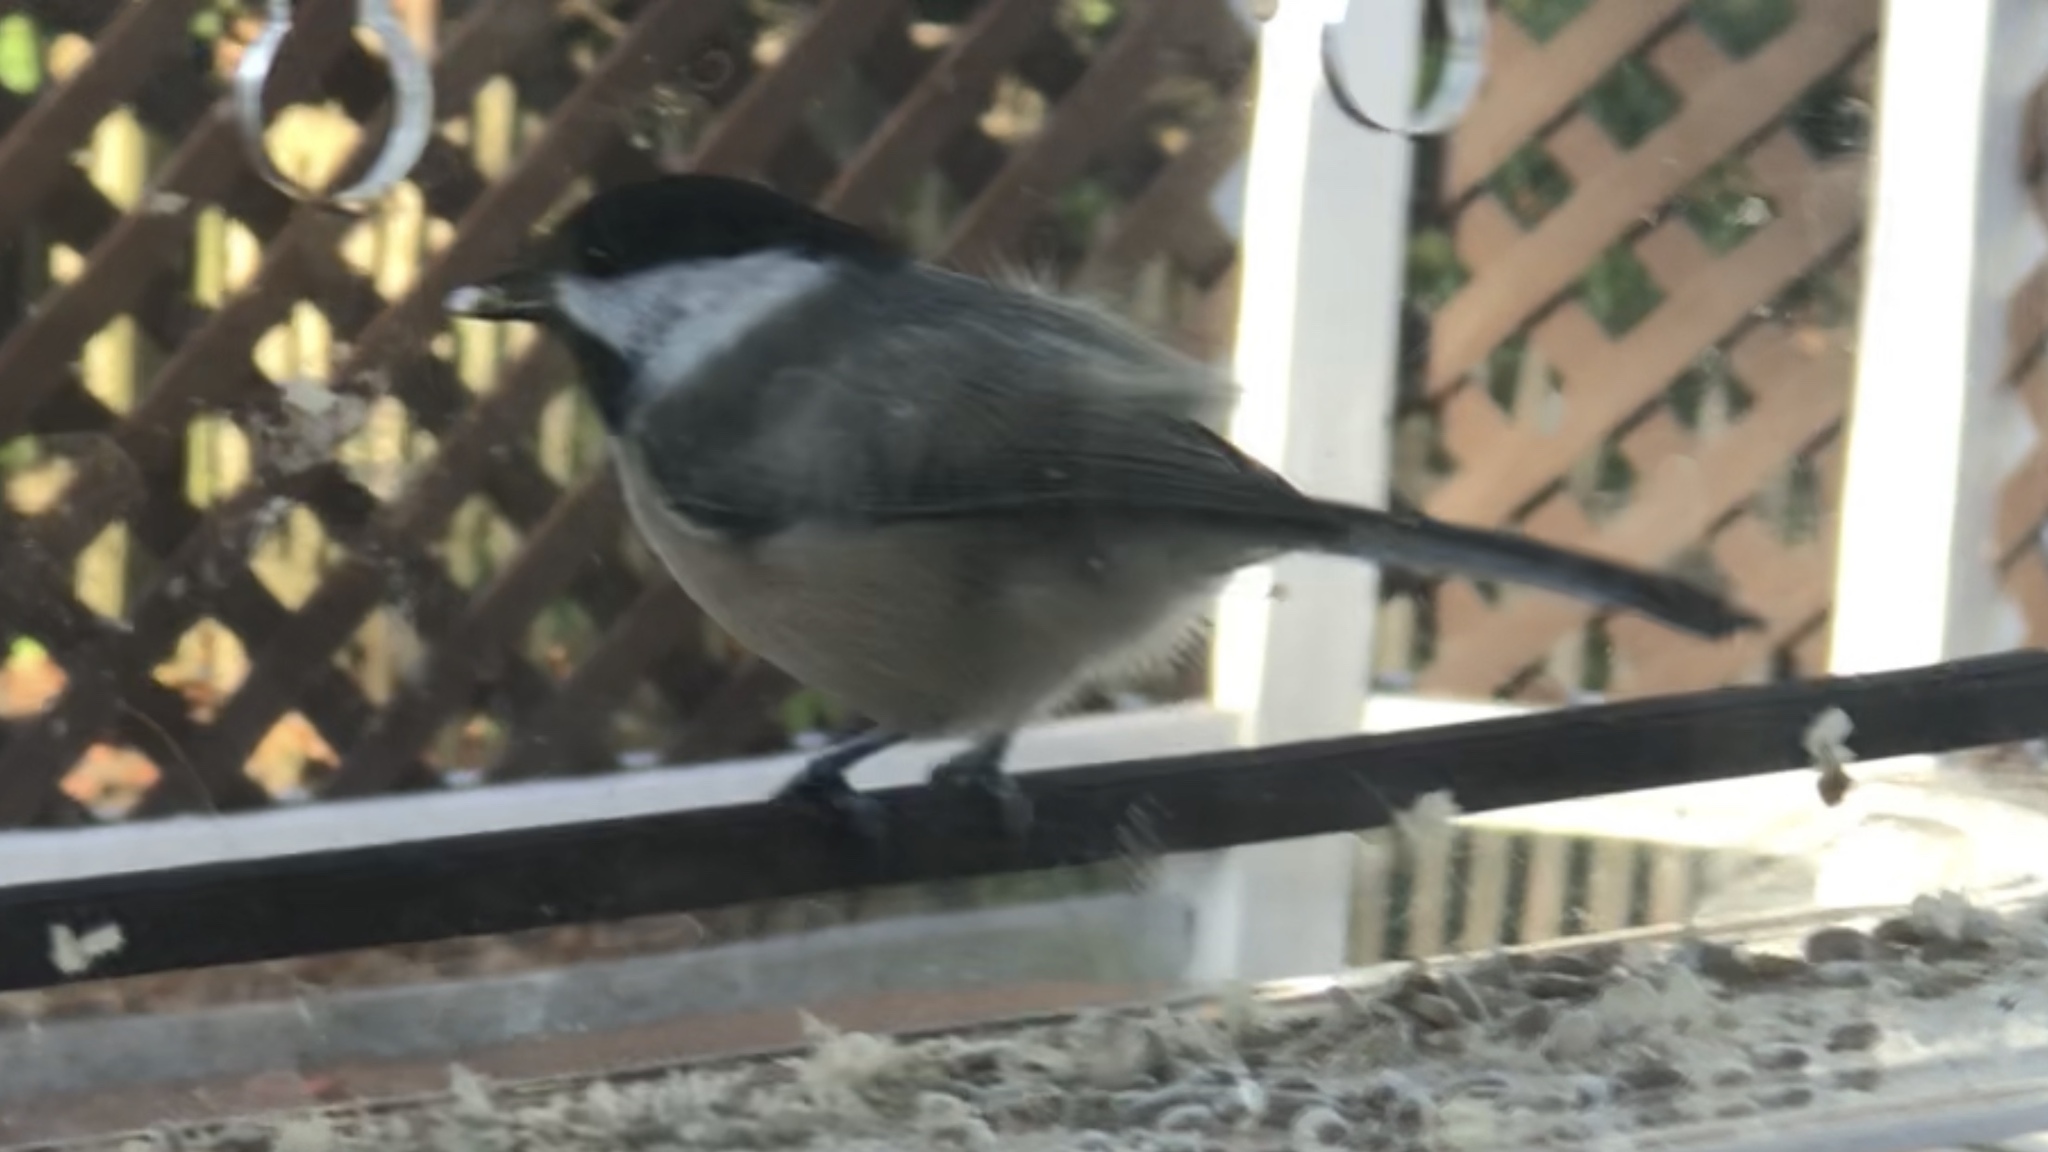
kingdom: Animalia
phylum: Chordata
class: Aves
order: Passeriformes
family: Paridae
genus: Poecile
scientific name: Poecile atricapillus
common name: Black-capped chickadee
